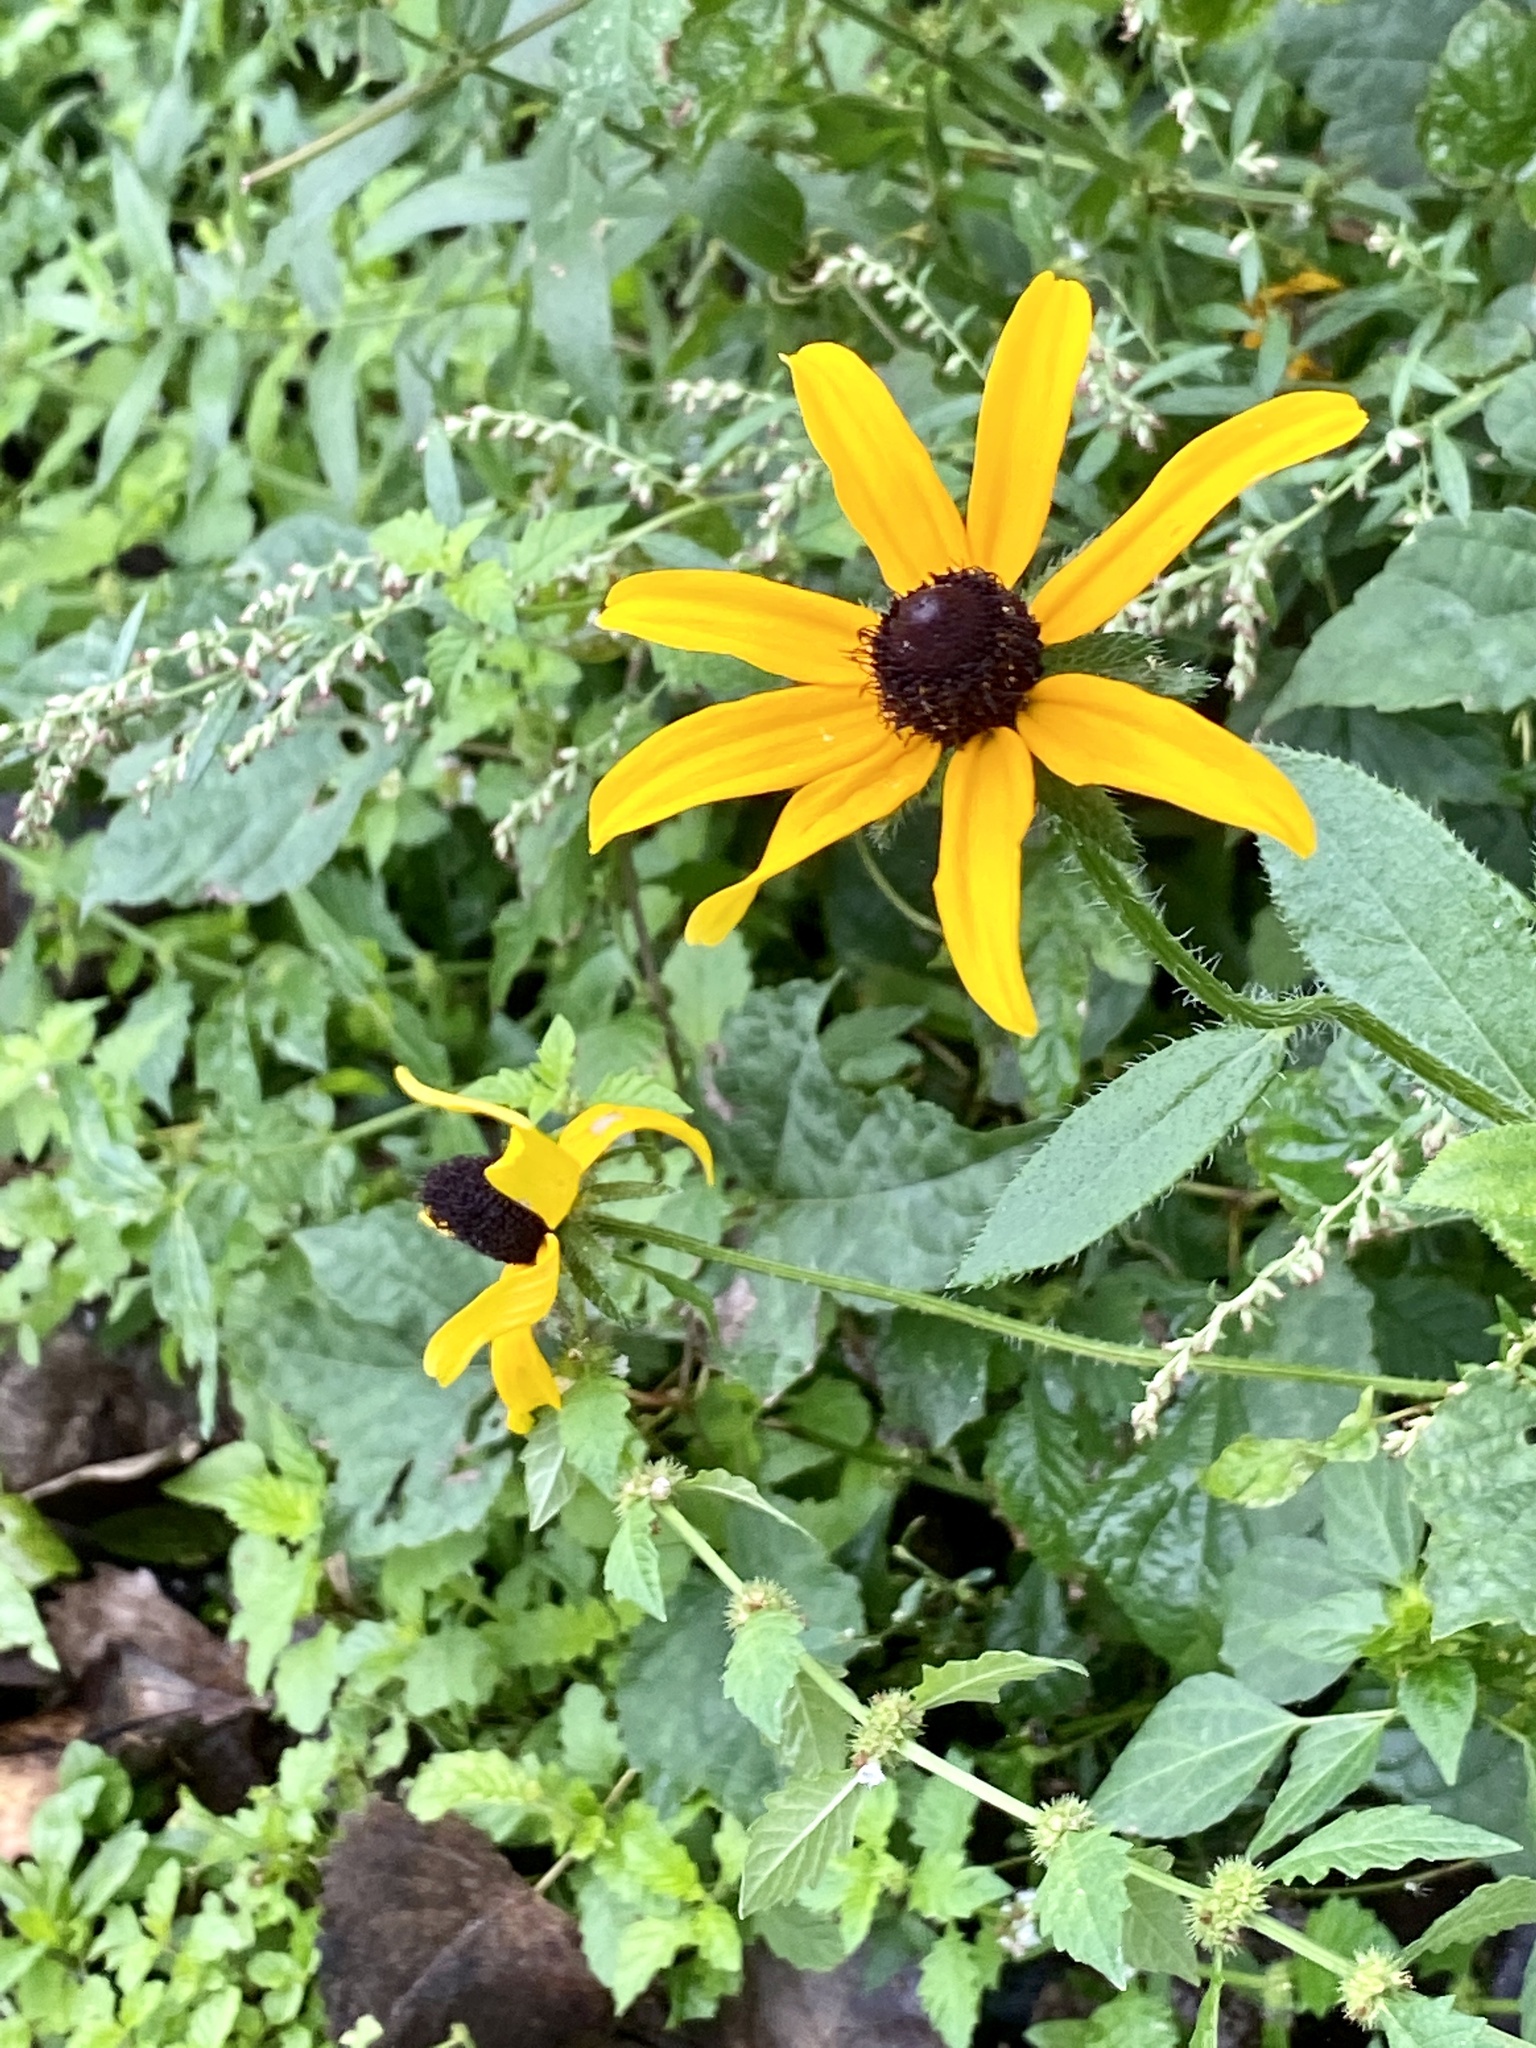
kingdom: Plantae
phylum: Tracheophyta
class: Magnoliopsida
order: Asterales
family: Asteraceae
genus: Rudbeckia
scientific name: Rudbeckia hirta
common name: Black-eyed-susan
